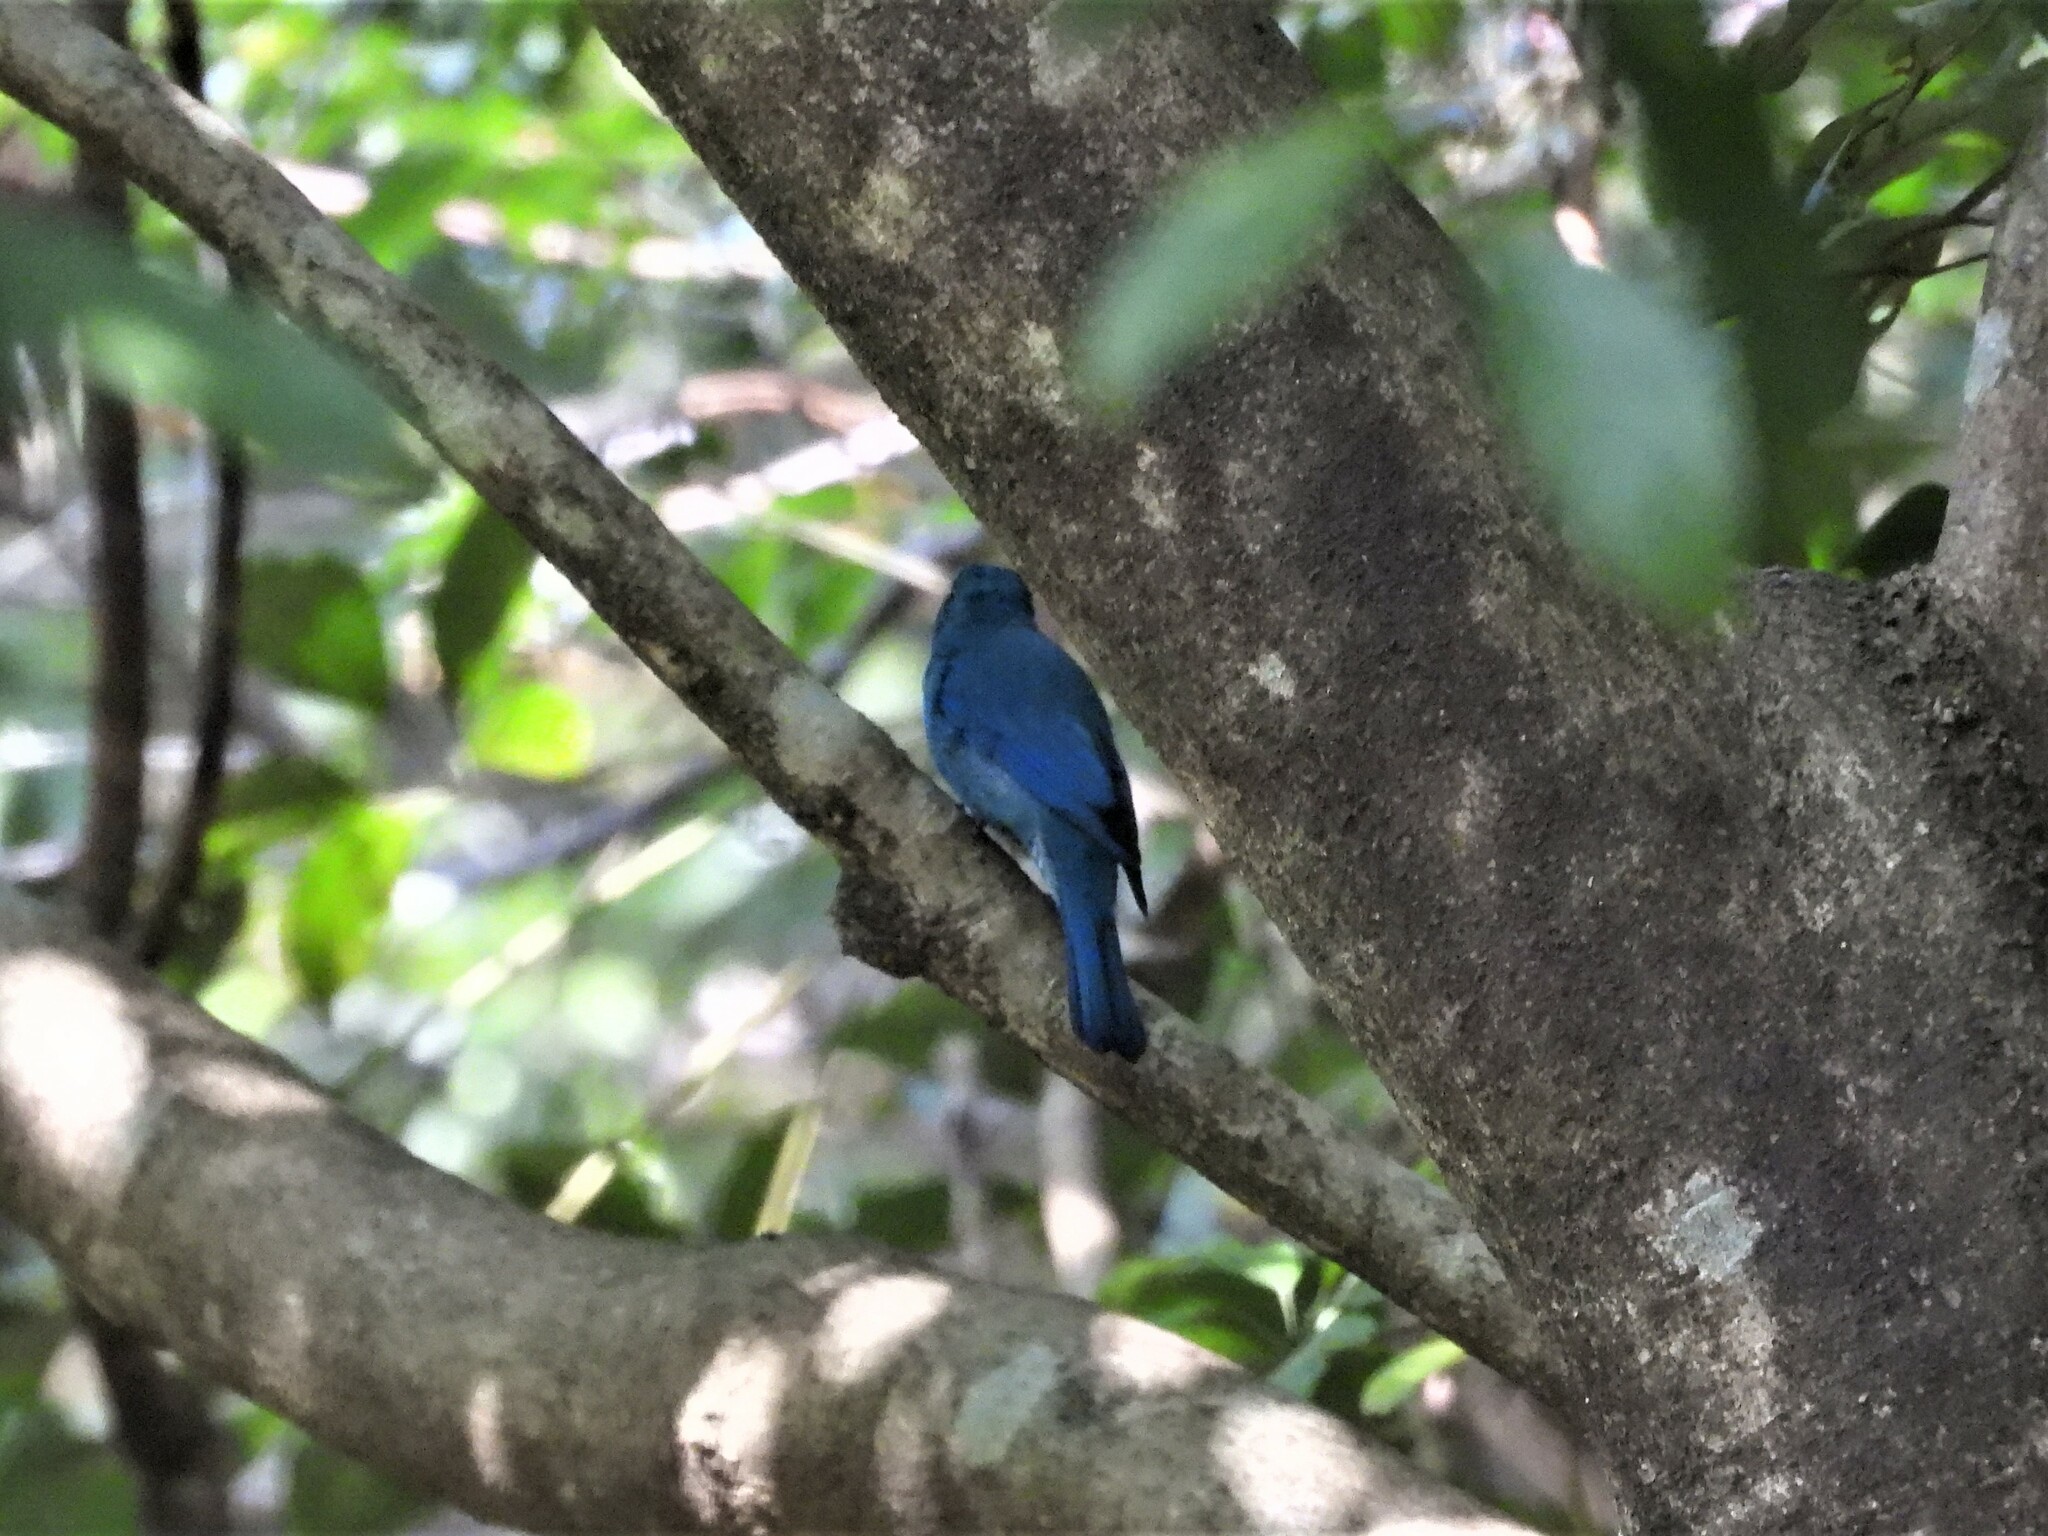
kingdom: Animalia
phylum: Chordata
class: Aves
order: Passeriformes
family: Muscicapidae
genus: Eumyias
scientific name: Eumyias thalassinus
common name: Verditer flycatcher
